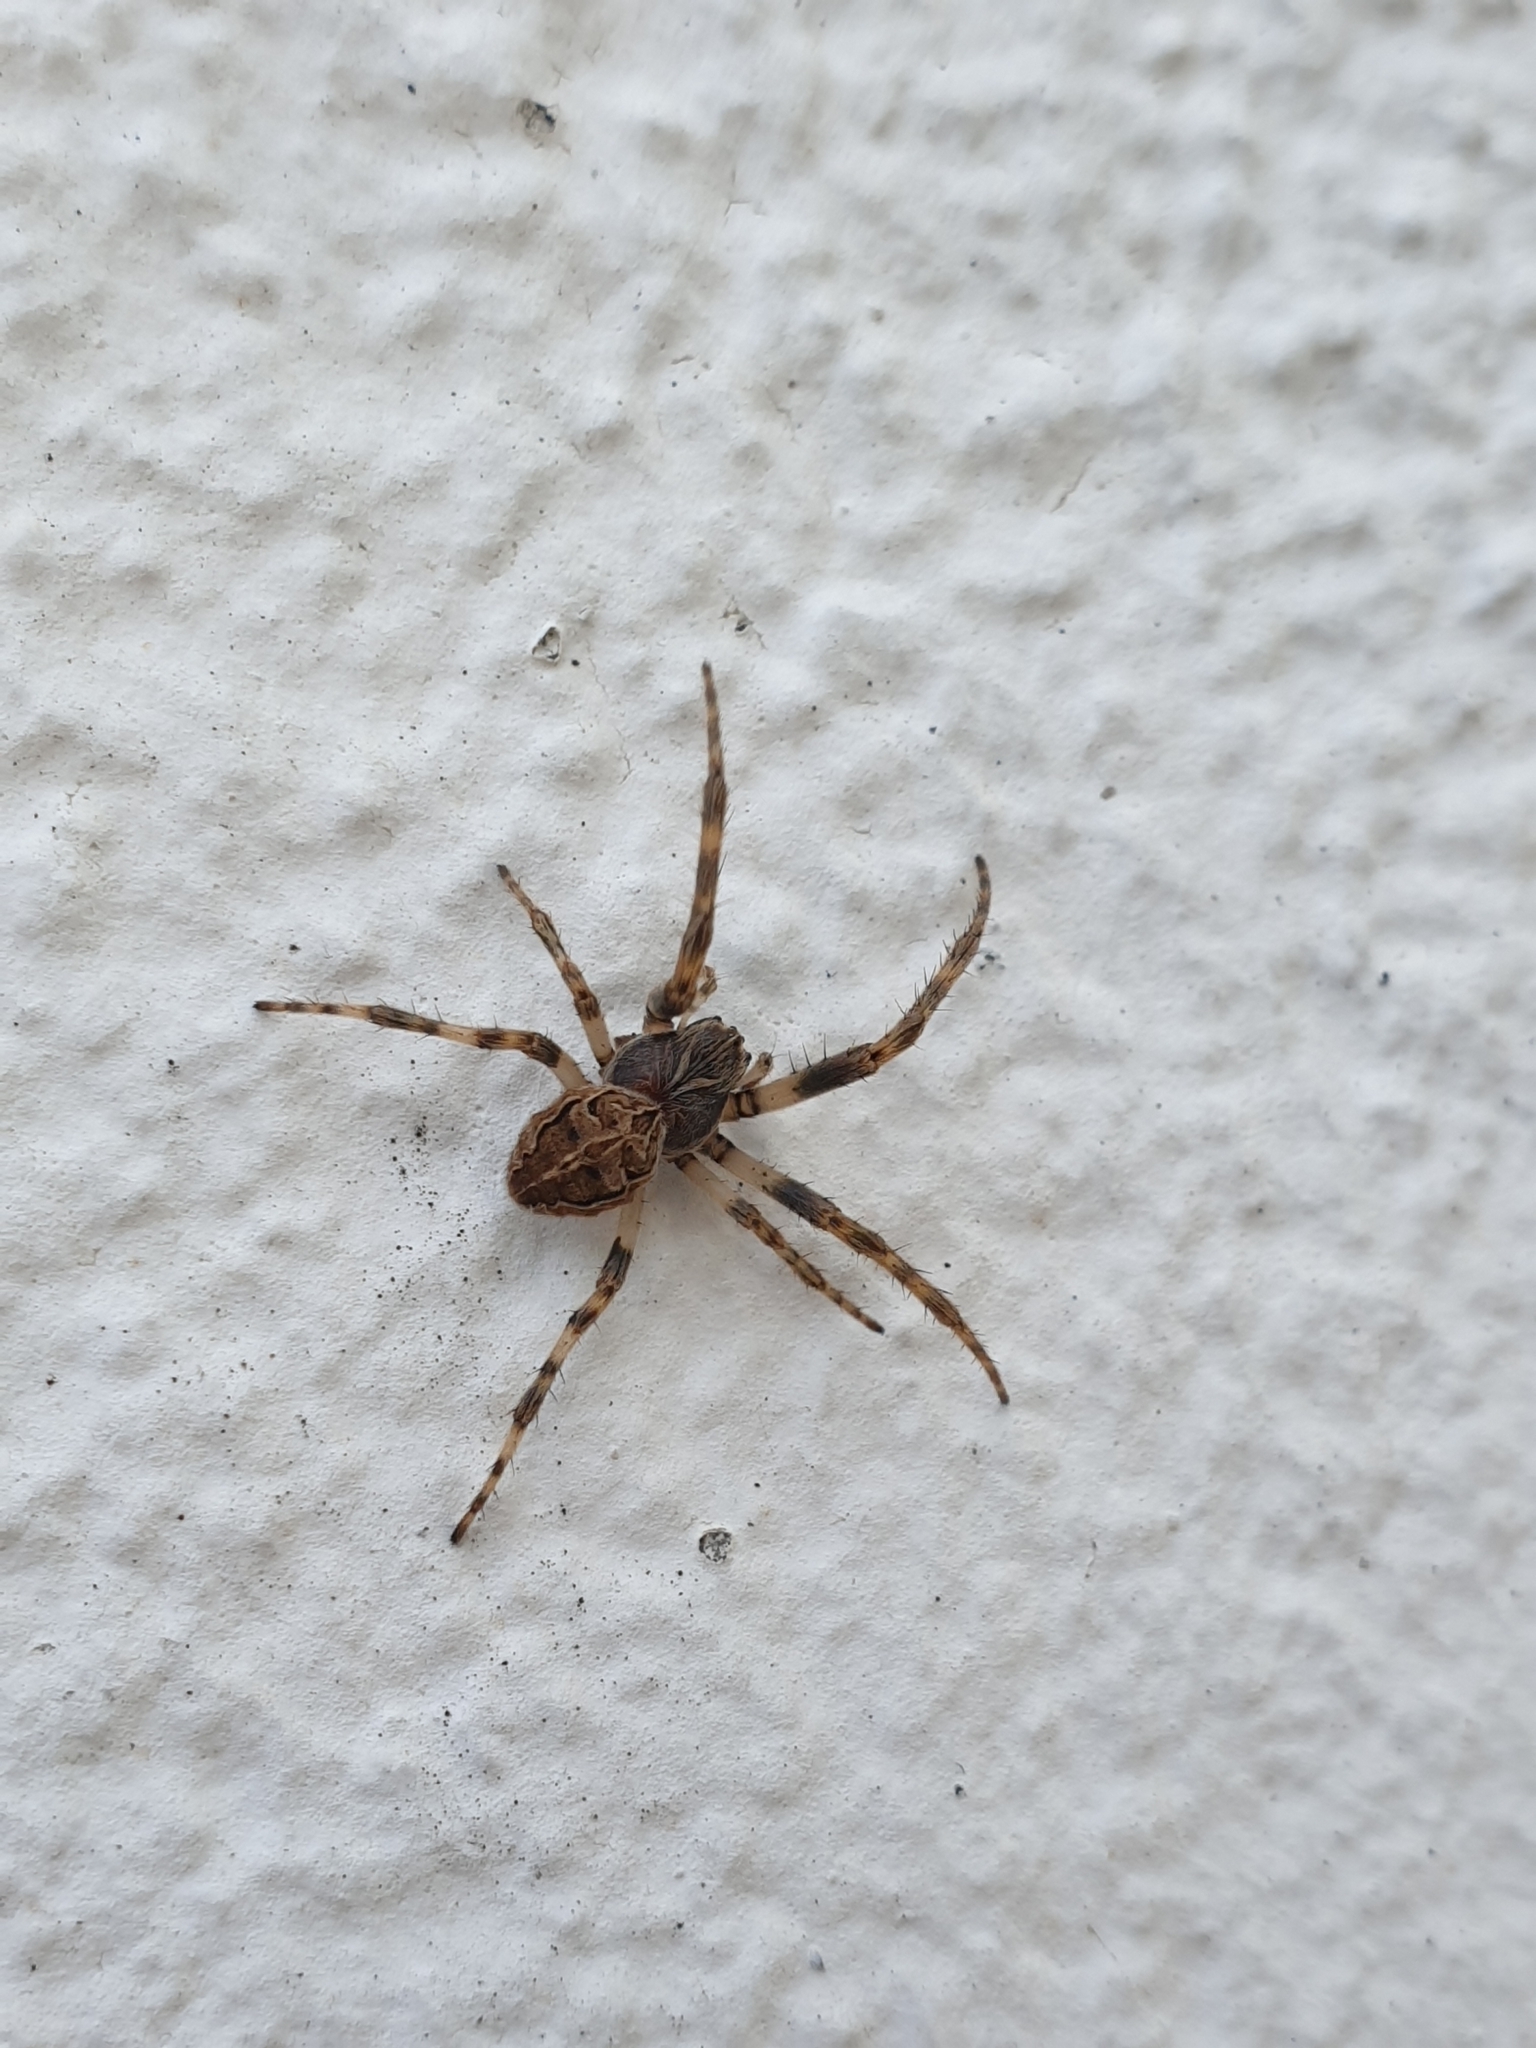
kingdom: Animalia
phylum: Arthropoda
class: Arachnida
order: Araneae
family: Araneidae
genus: Larinioides
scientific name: Larinioides sclopetarius
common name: Bridge orbweaver
